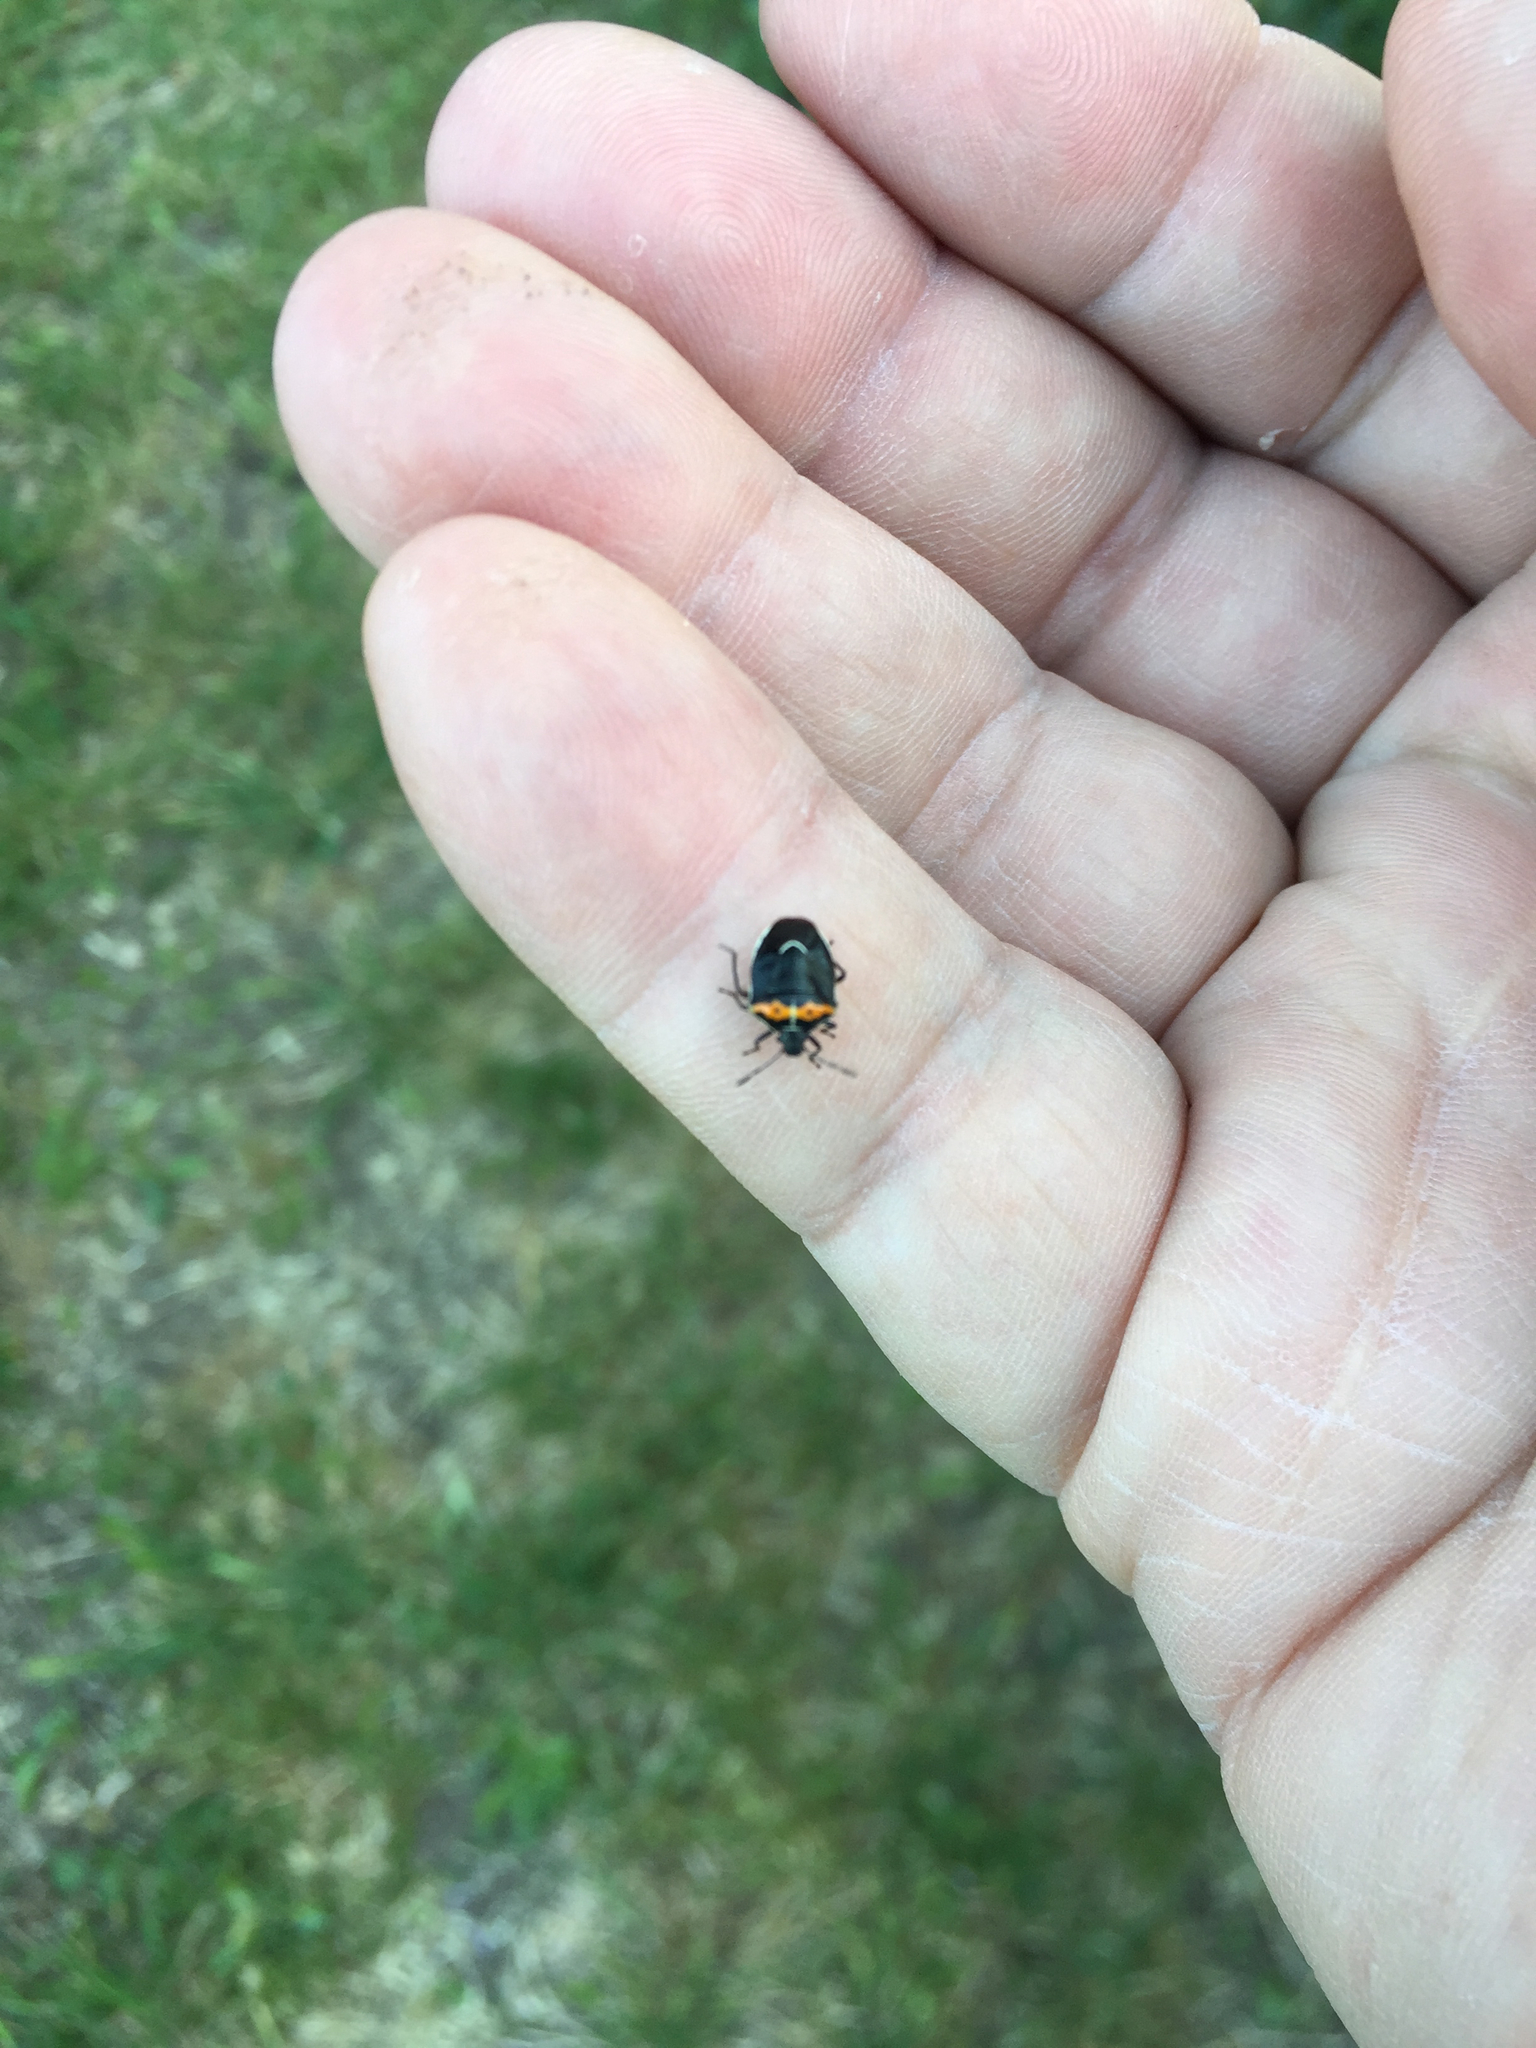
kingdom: Animalia
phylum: Arthropoda
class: Insecta
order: Hemiptera
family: Pentatomidae
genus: Cosmopepla
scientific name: Cosmopepla conspicillaris
